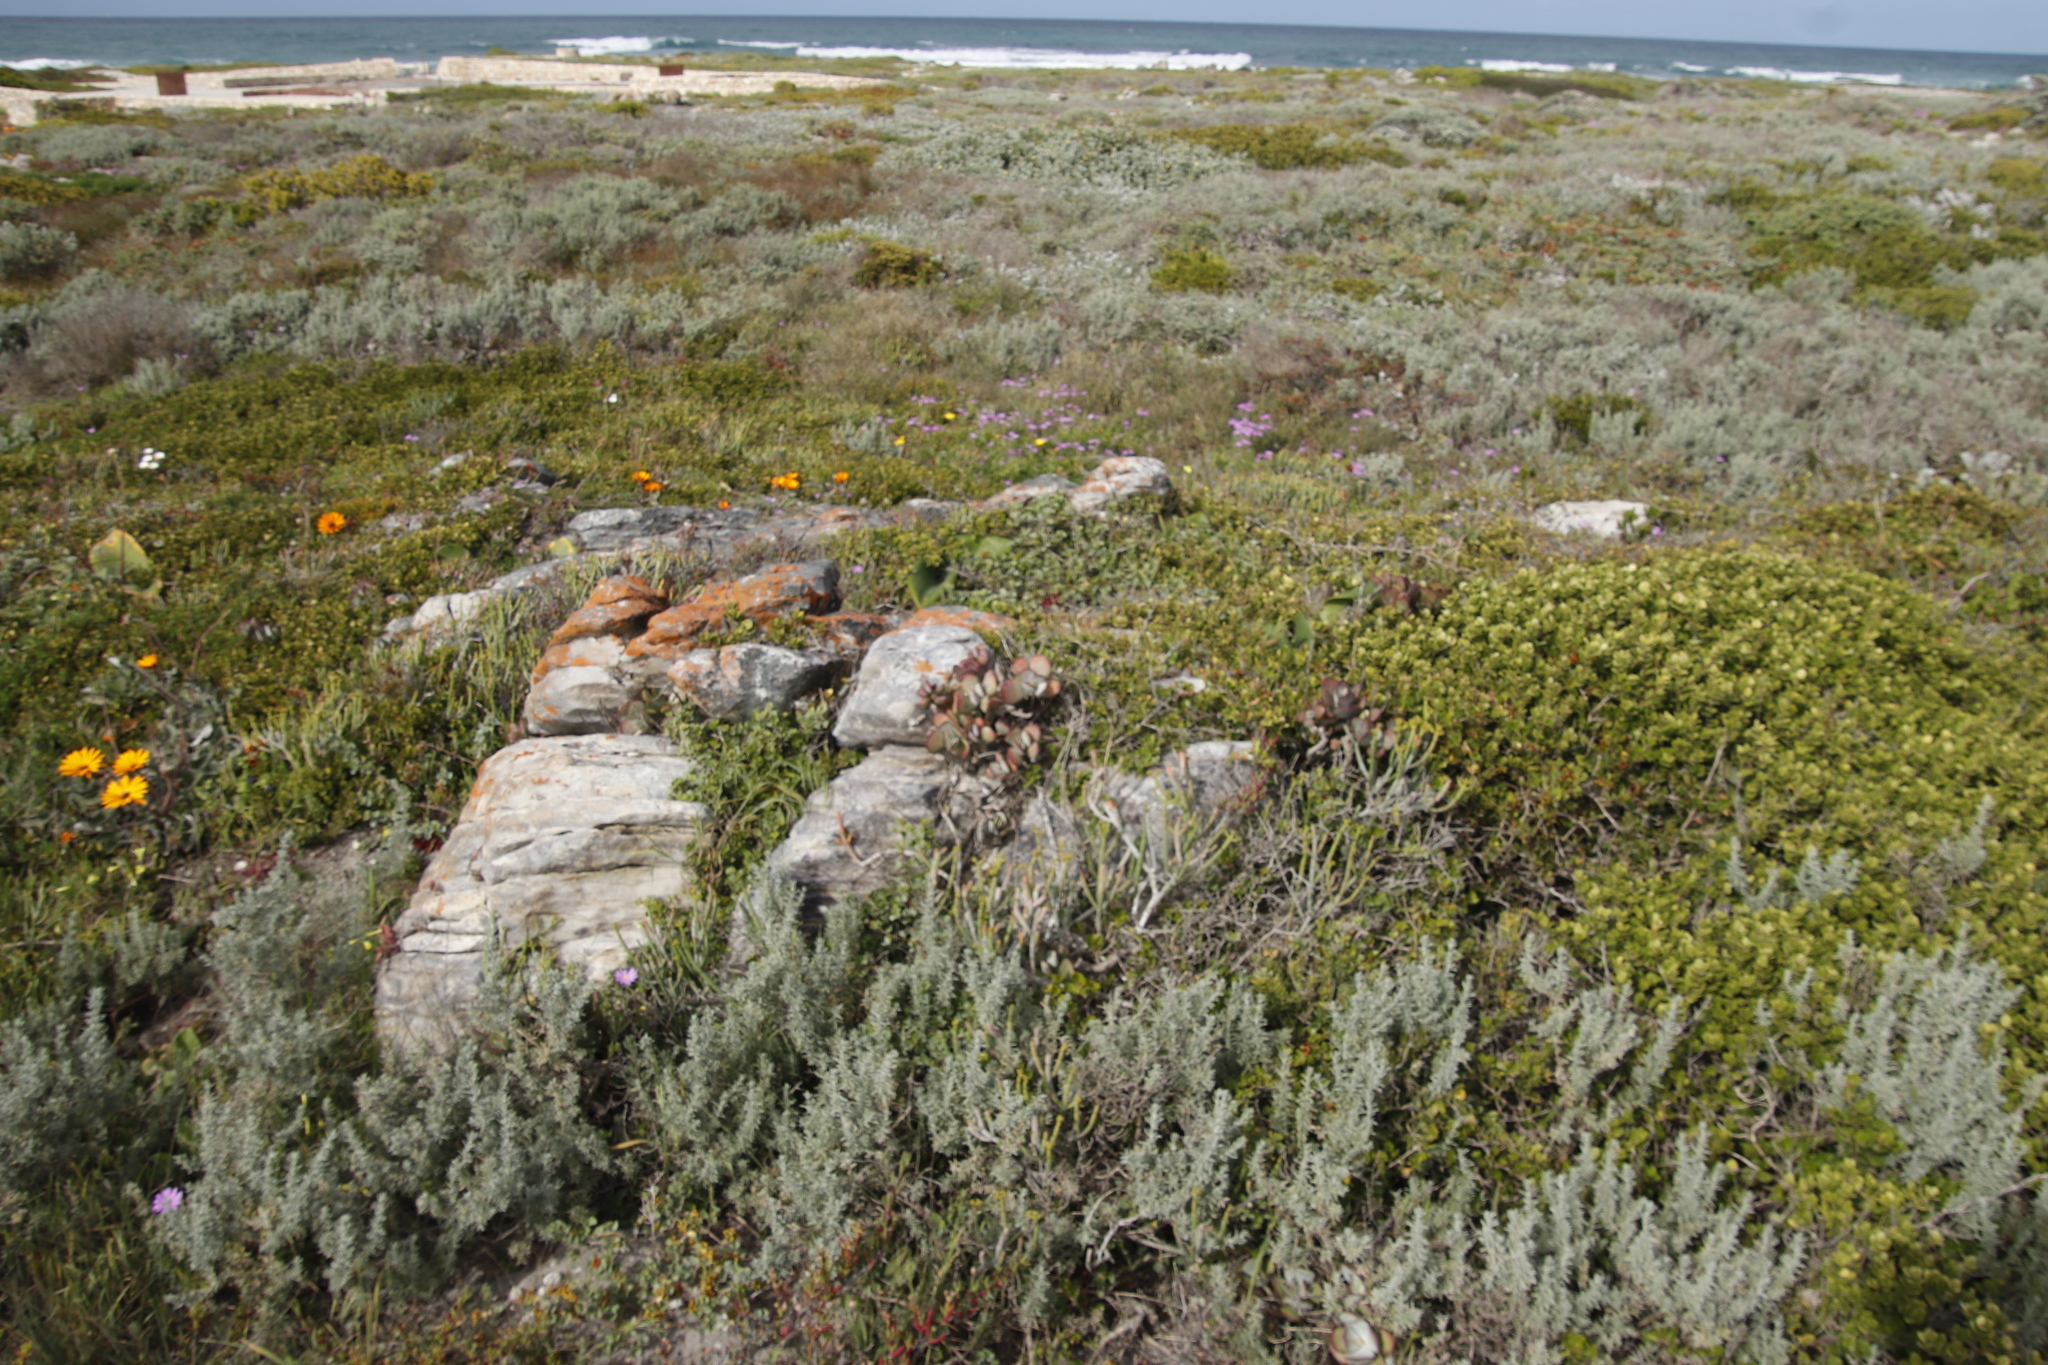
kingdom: Plantae
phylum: Tracheophyta
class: Magnoliopsida
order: Saxifragales
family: Crassulaceae
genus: Cotyledon
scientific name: Cotyledon orbiculata
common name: Pig's ear
